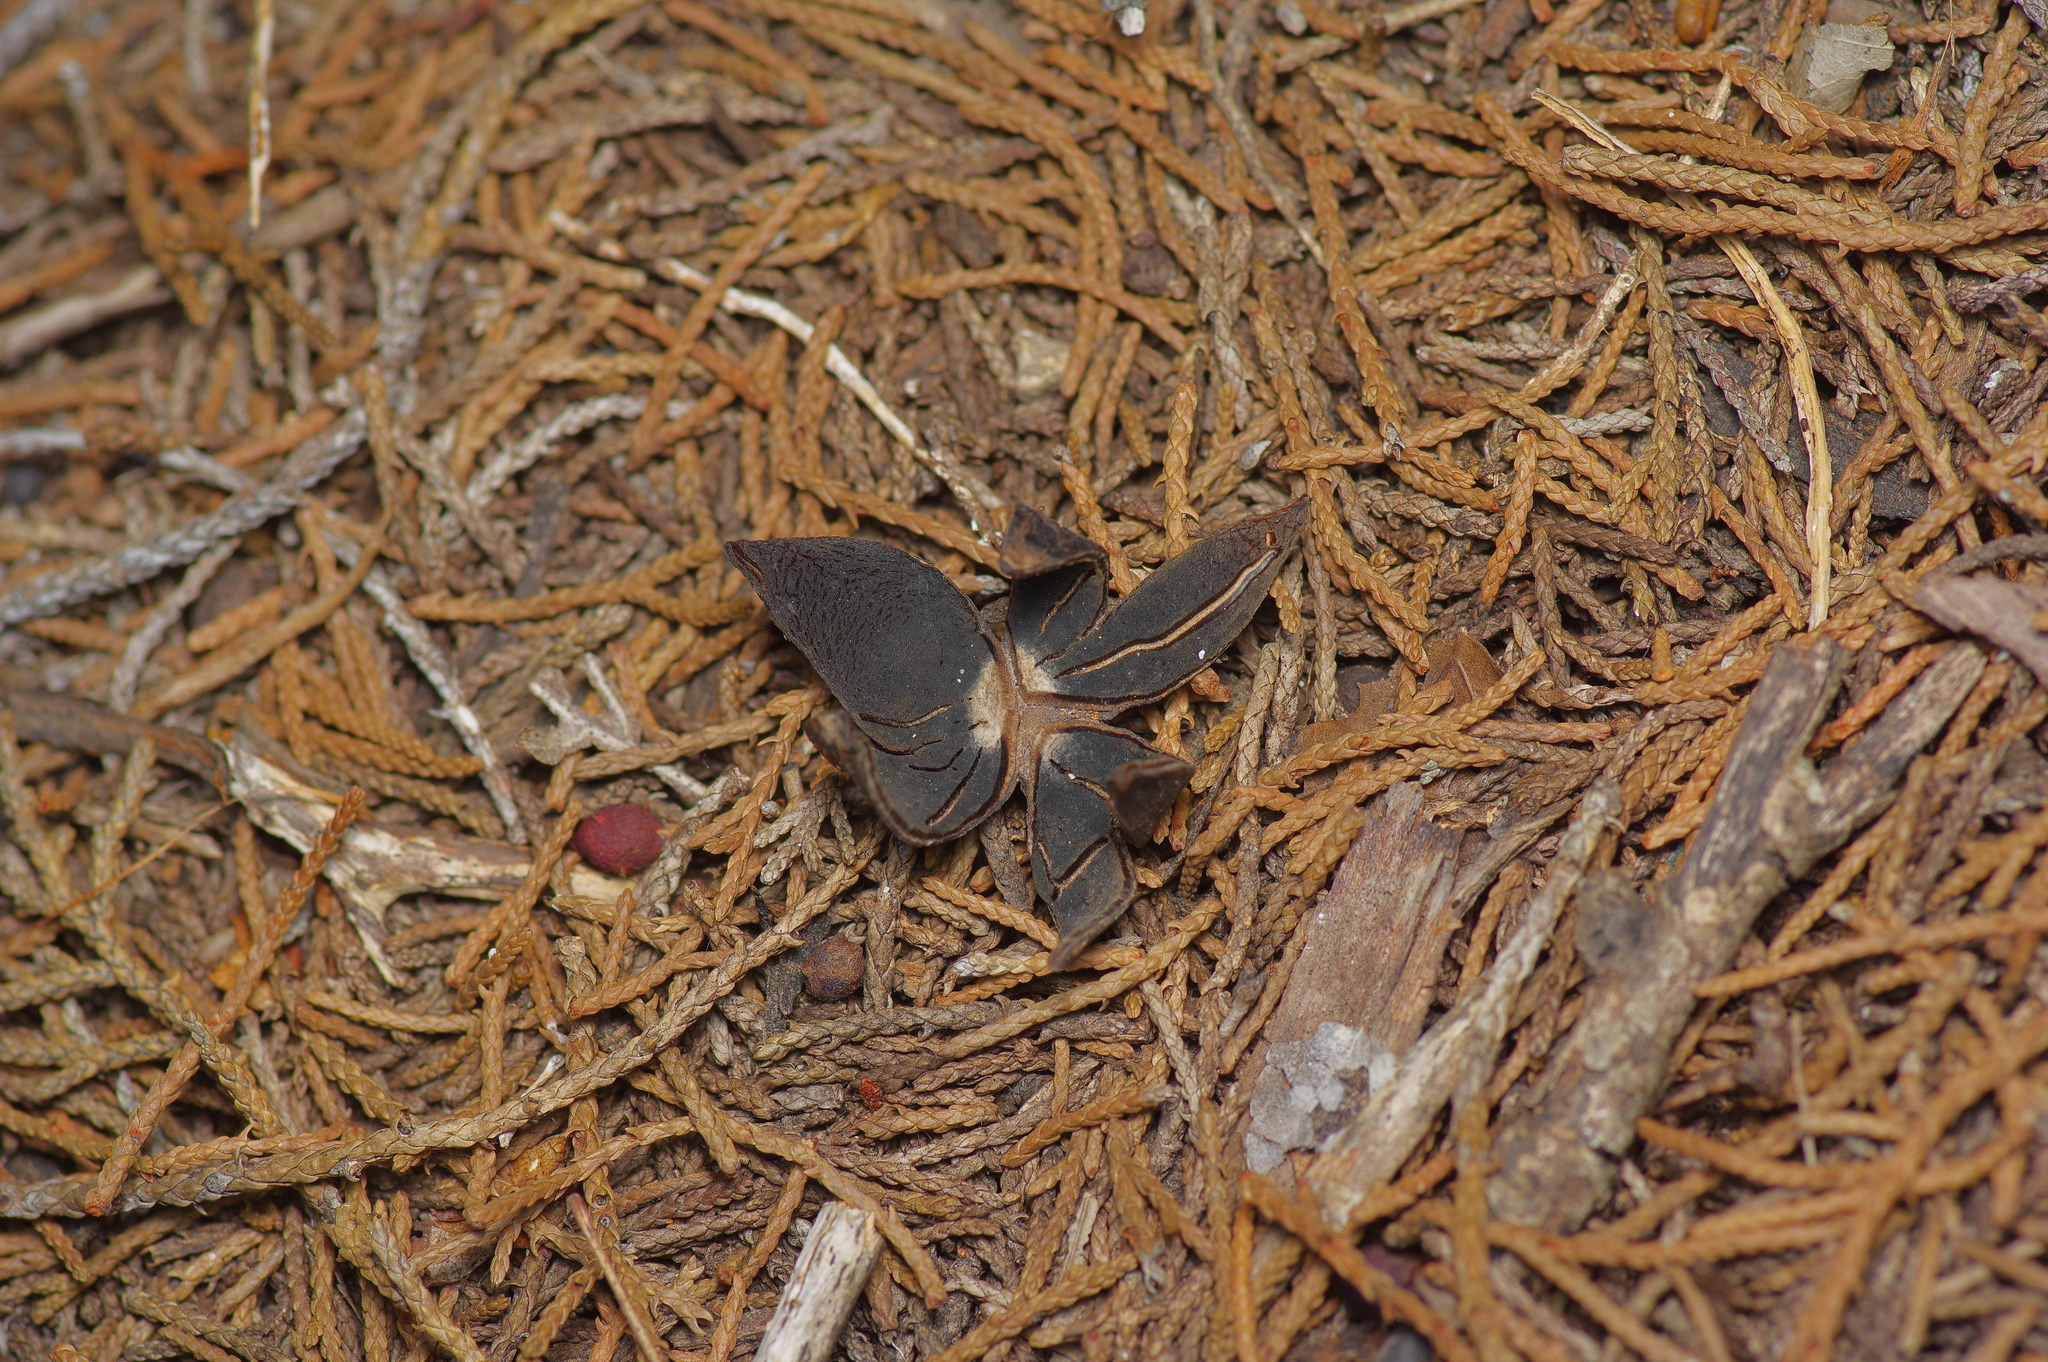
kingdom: Fungi
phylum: Basidiomycota
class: Agaricomycetes
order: Boletales
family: Diplocystidiaceae
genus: Astraeus
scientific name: Astraeus morganii
